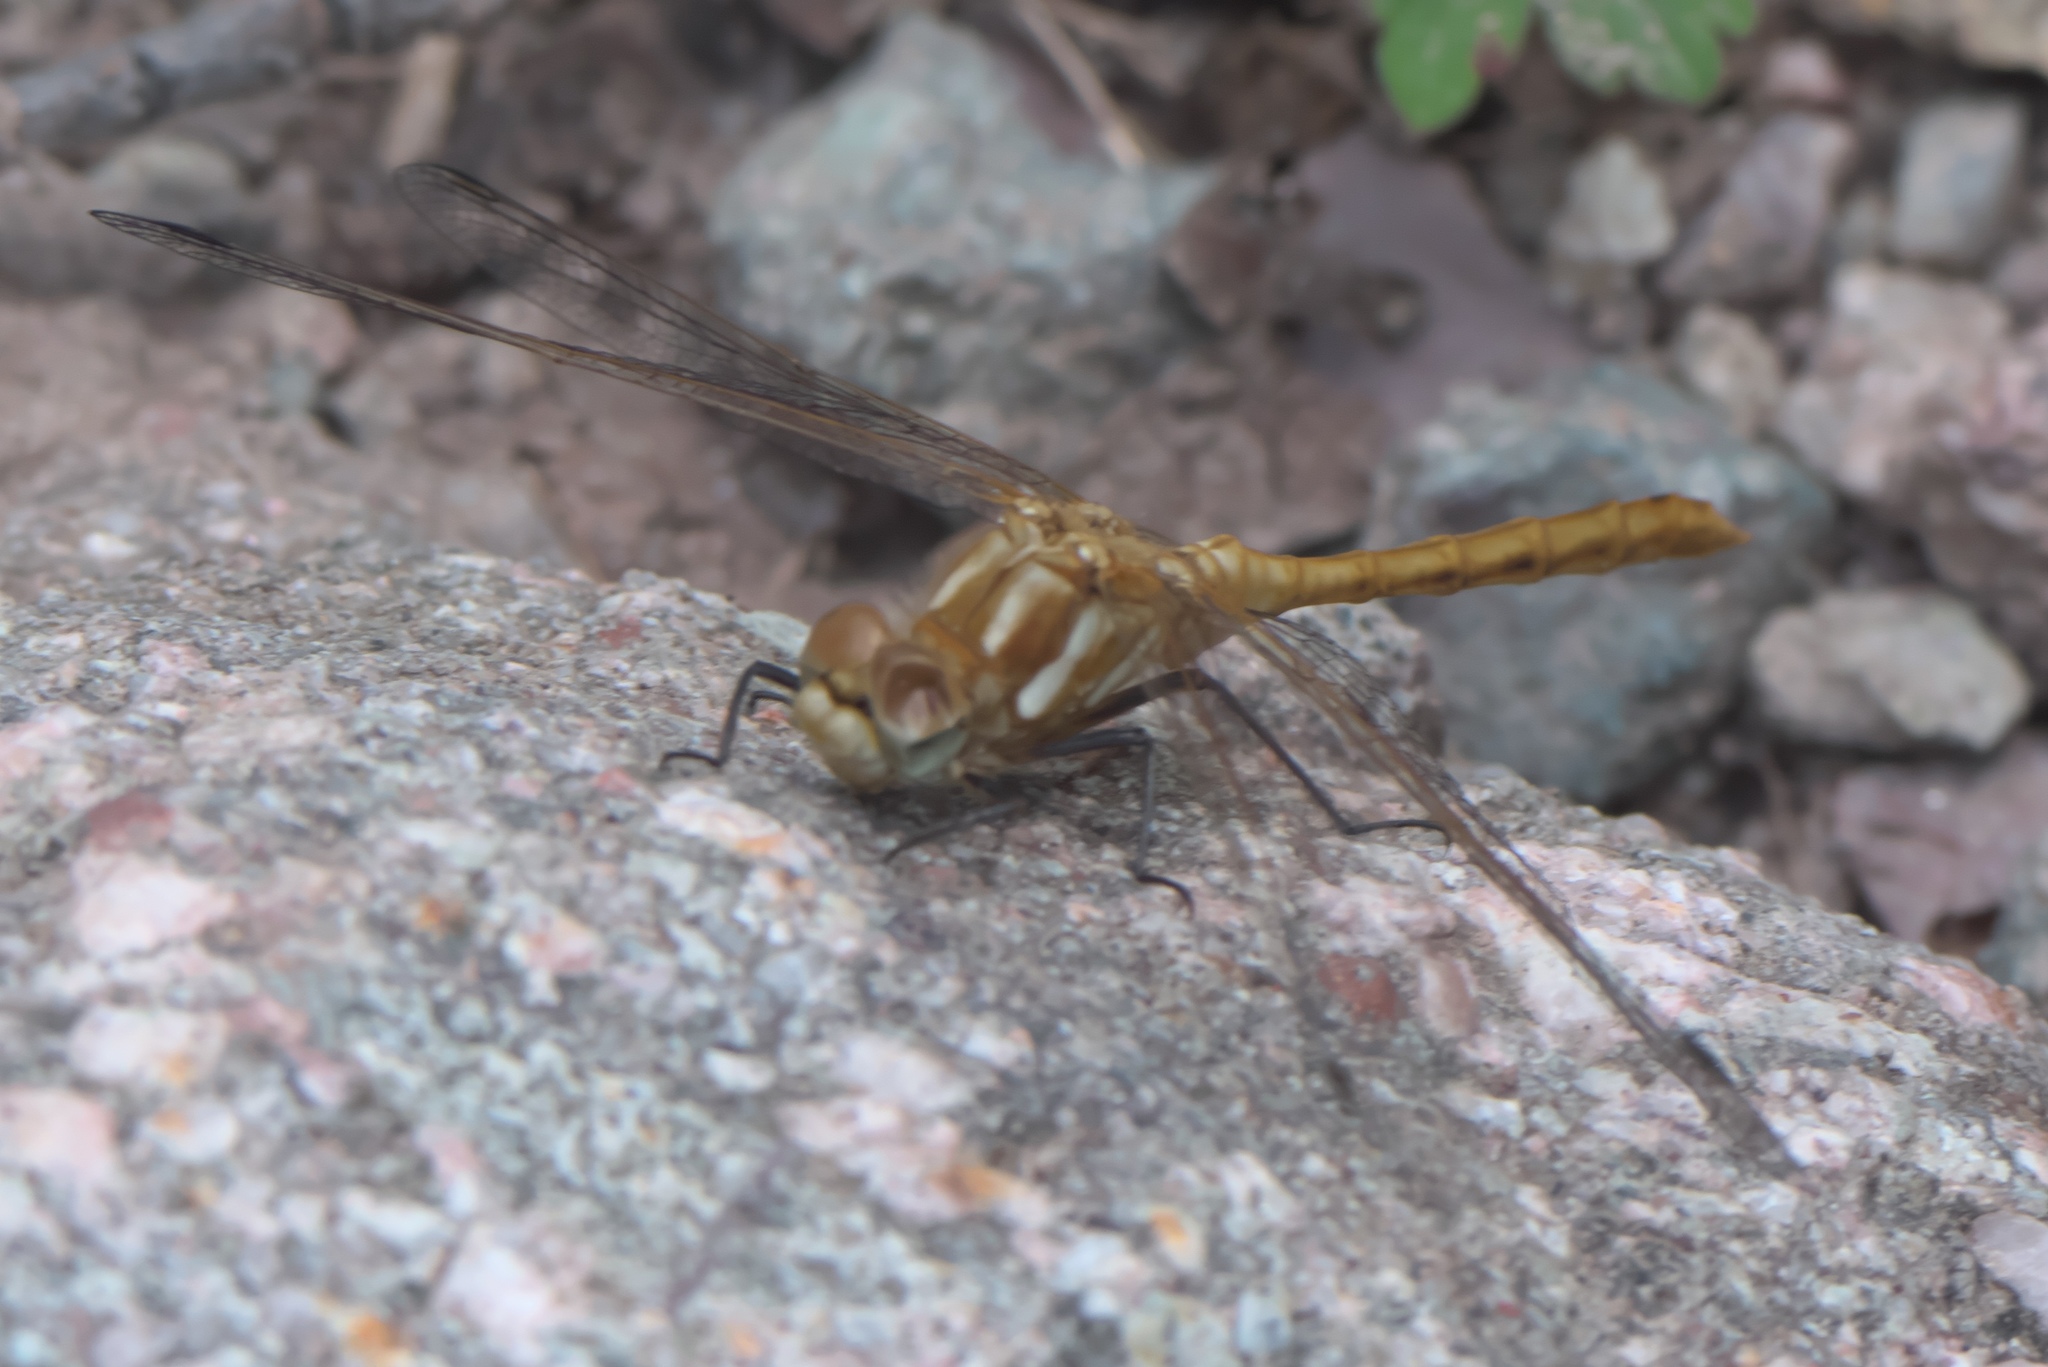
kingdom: Animalia
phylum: Arthropoda
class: Insecta
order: Odonata
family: Libellulidae
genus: Sympetrum
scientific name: Sympetrum pallipes
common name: Striped meadowhawk
